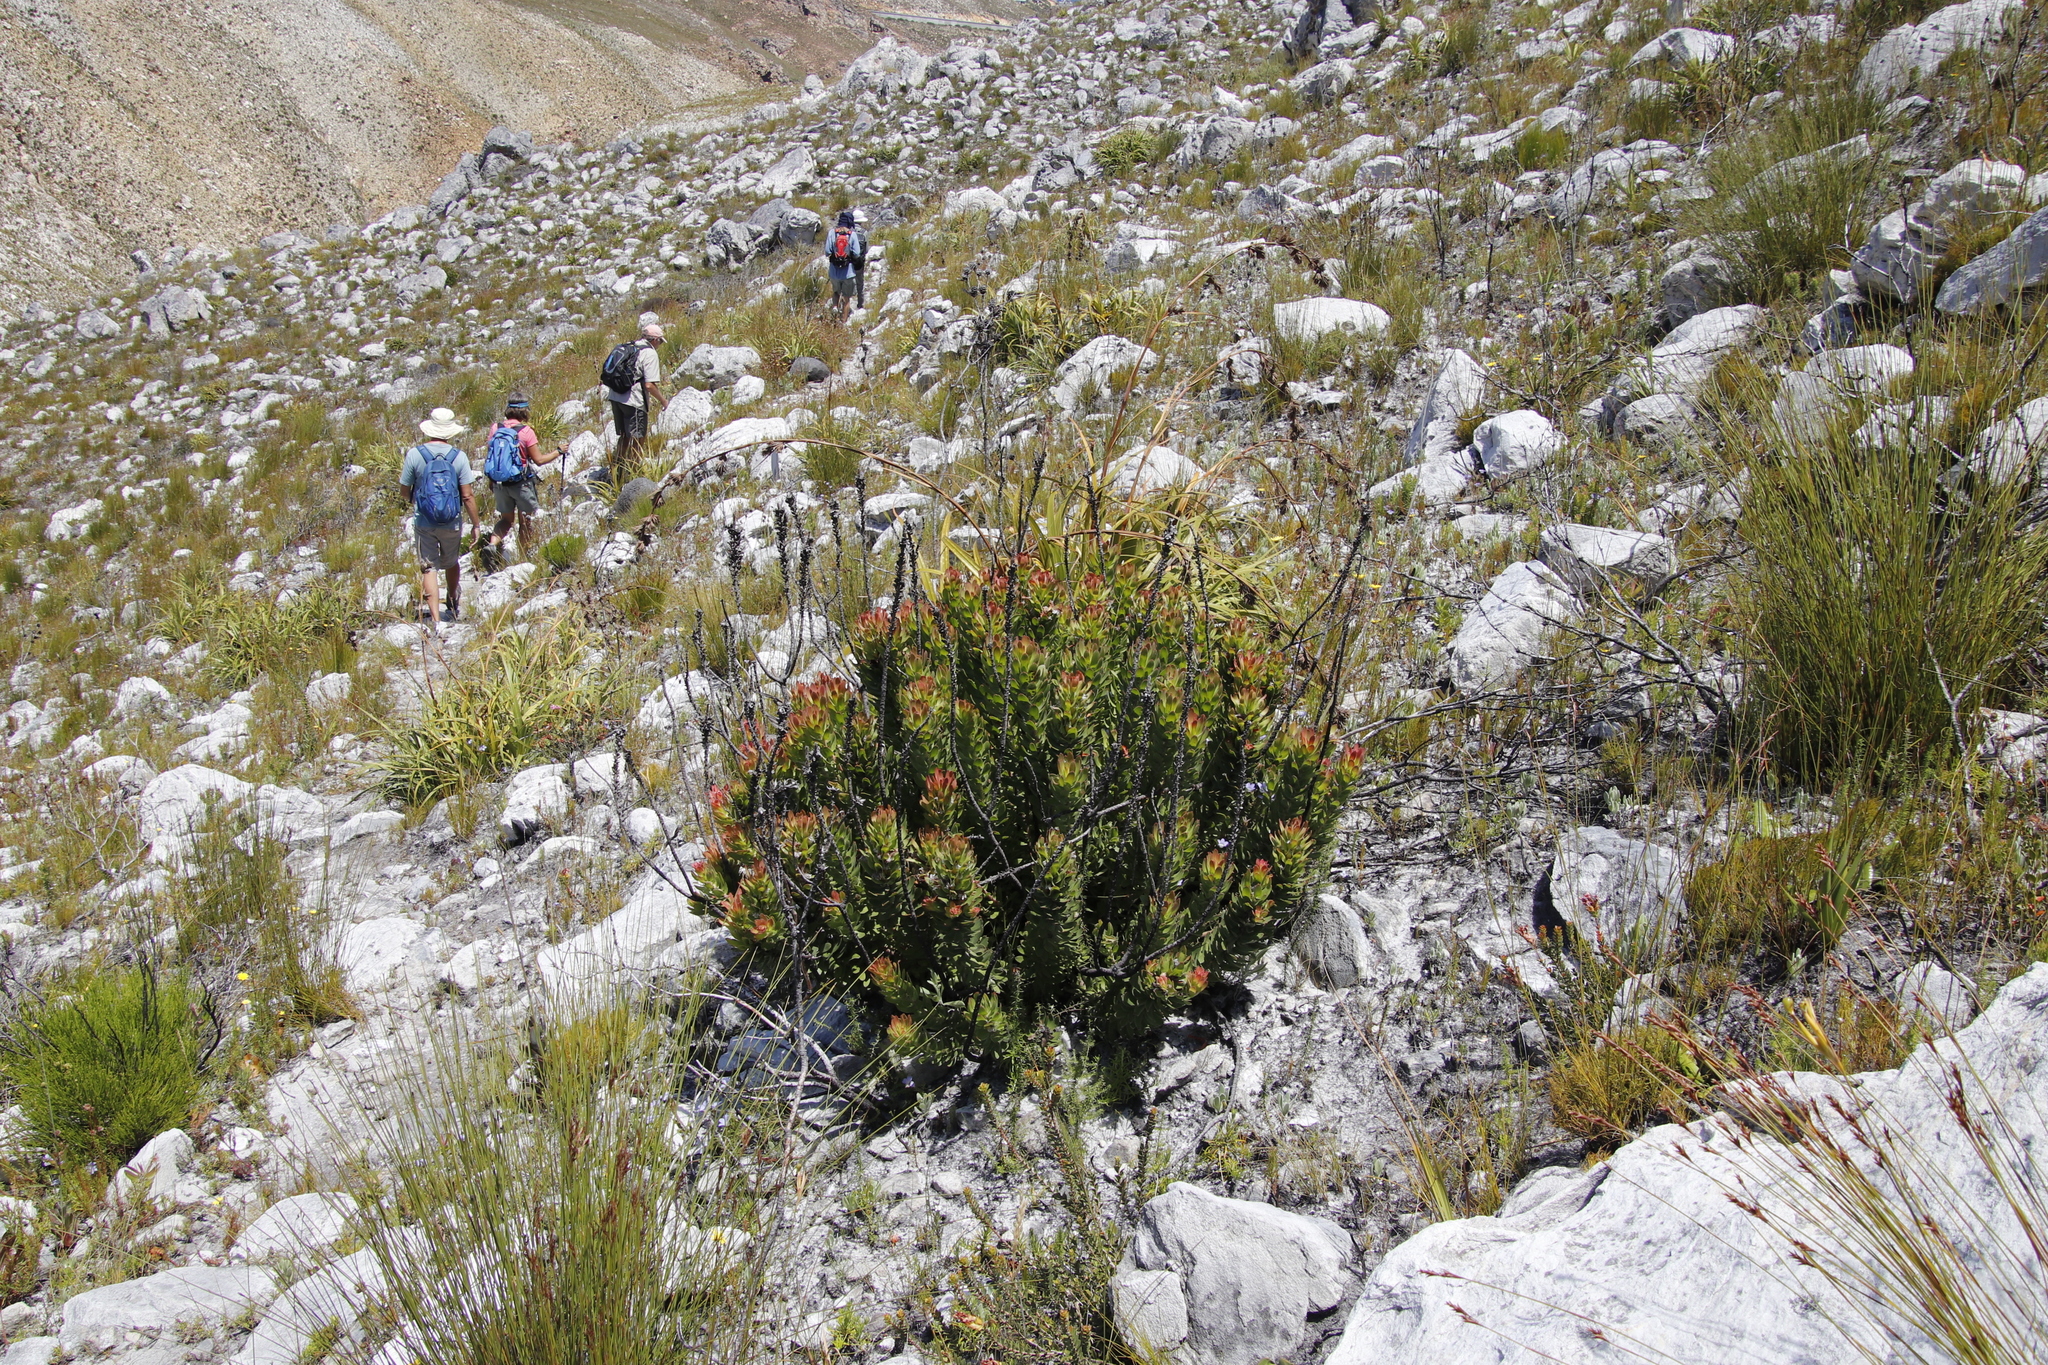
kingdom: Plantae
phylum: Tracheophyta
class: Magnoliopsida
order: Proteales
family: Proteaceae
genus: Mimetes
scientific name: Mimetes cucullatus
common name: Common pagoda
